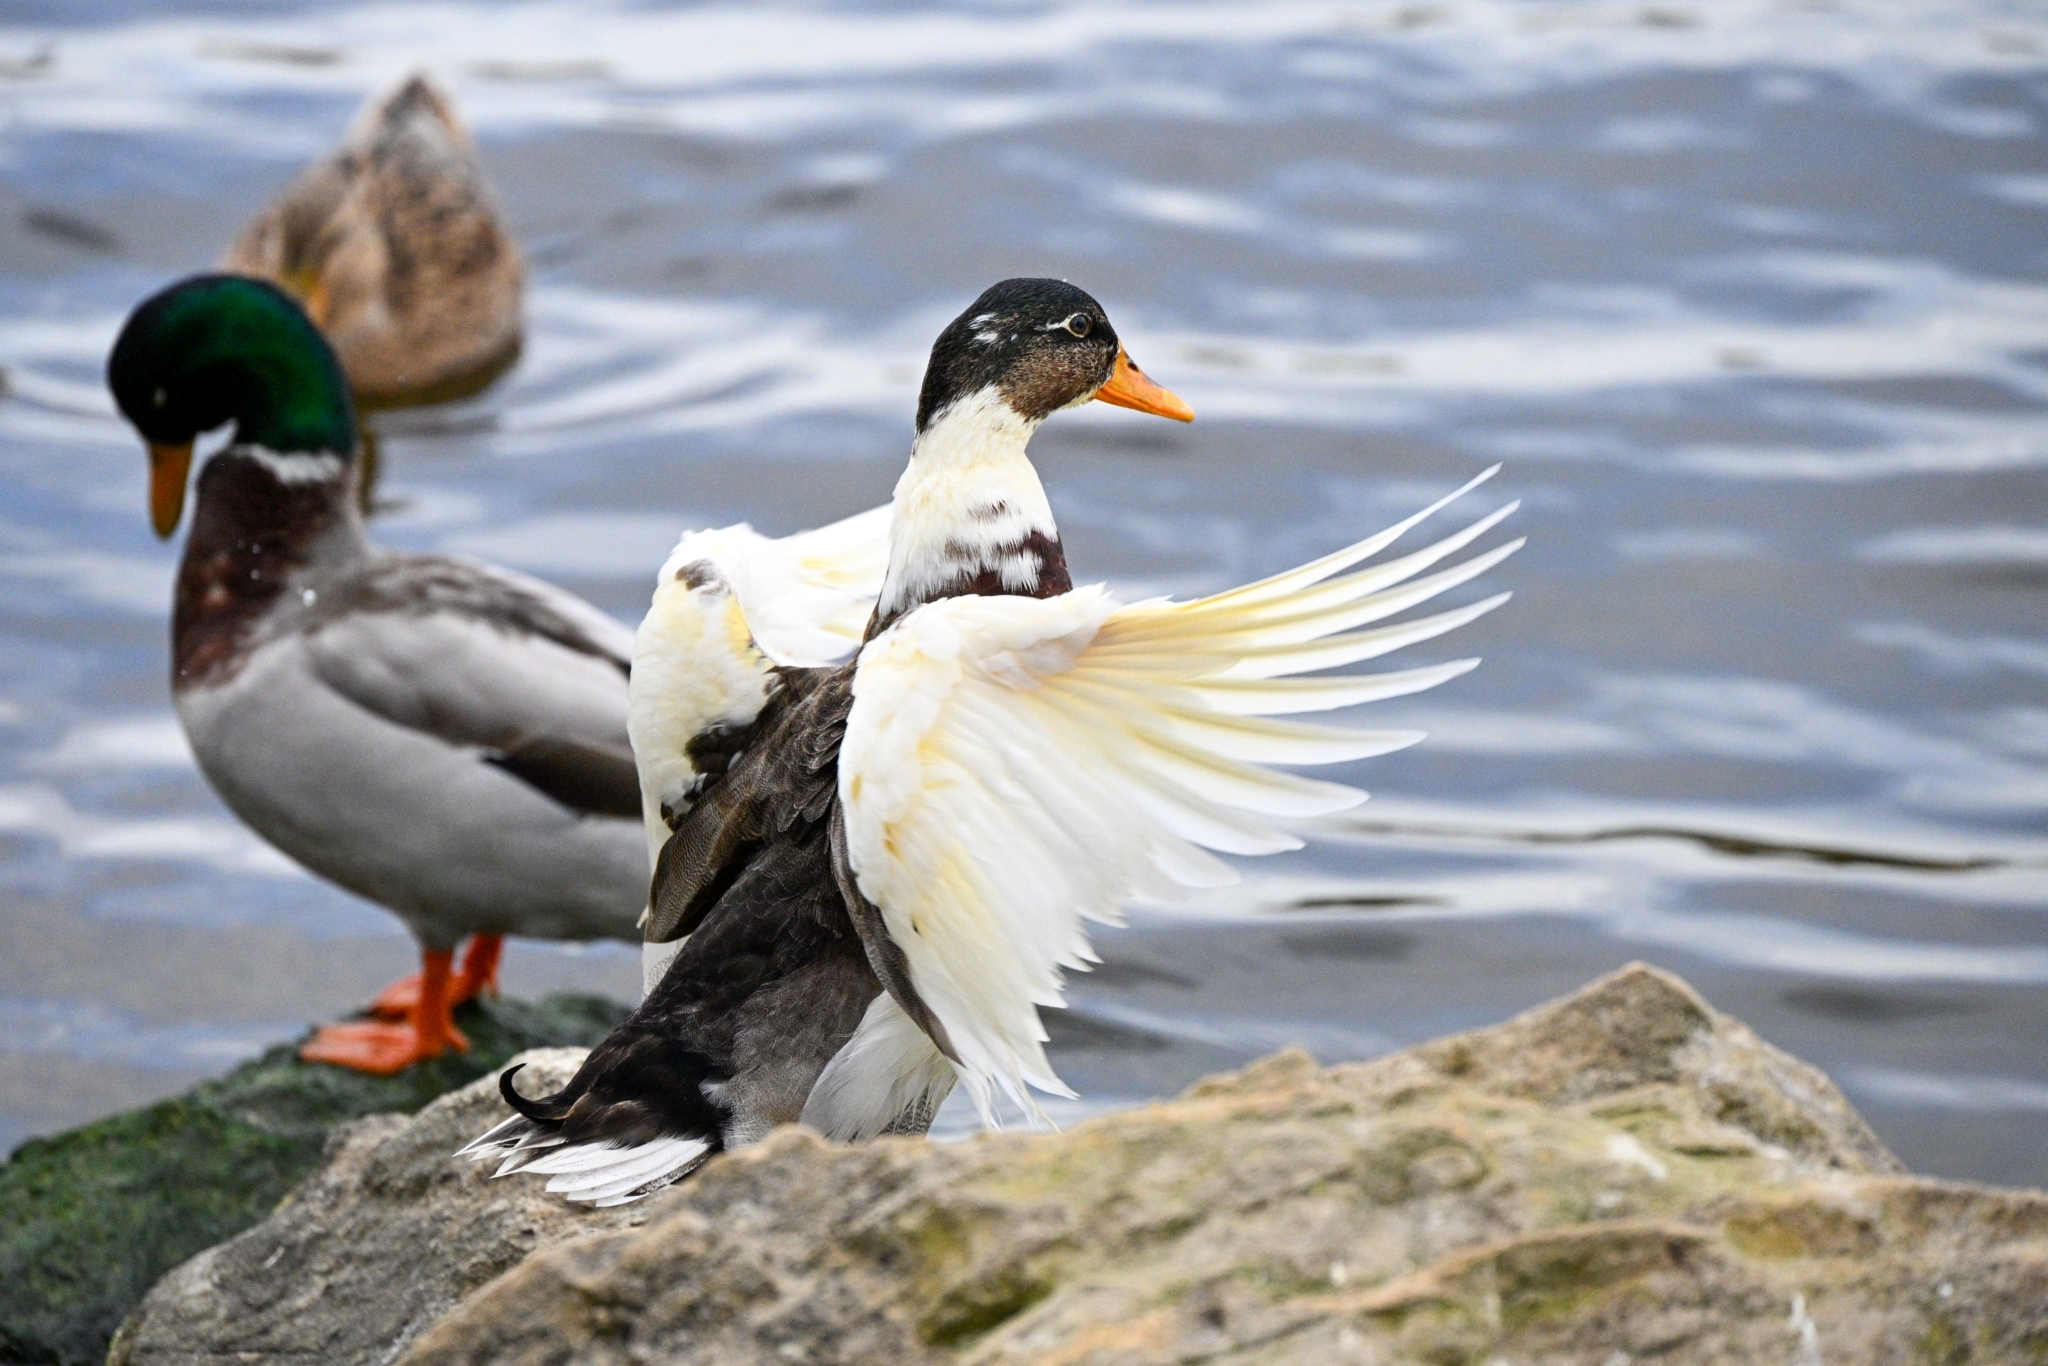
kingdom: Animalia
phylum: Chordata
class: Aves
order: Anseriformes
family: Anatidae
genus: Anas
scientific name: Anas platyrhynchos
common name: Mallard
